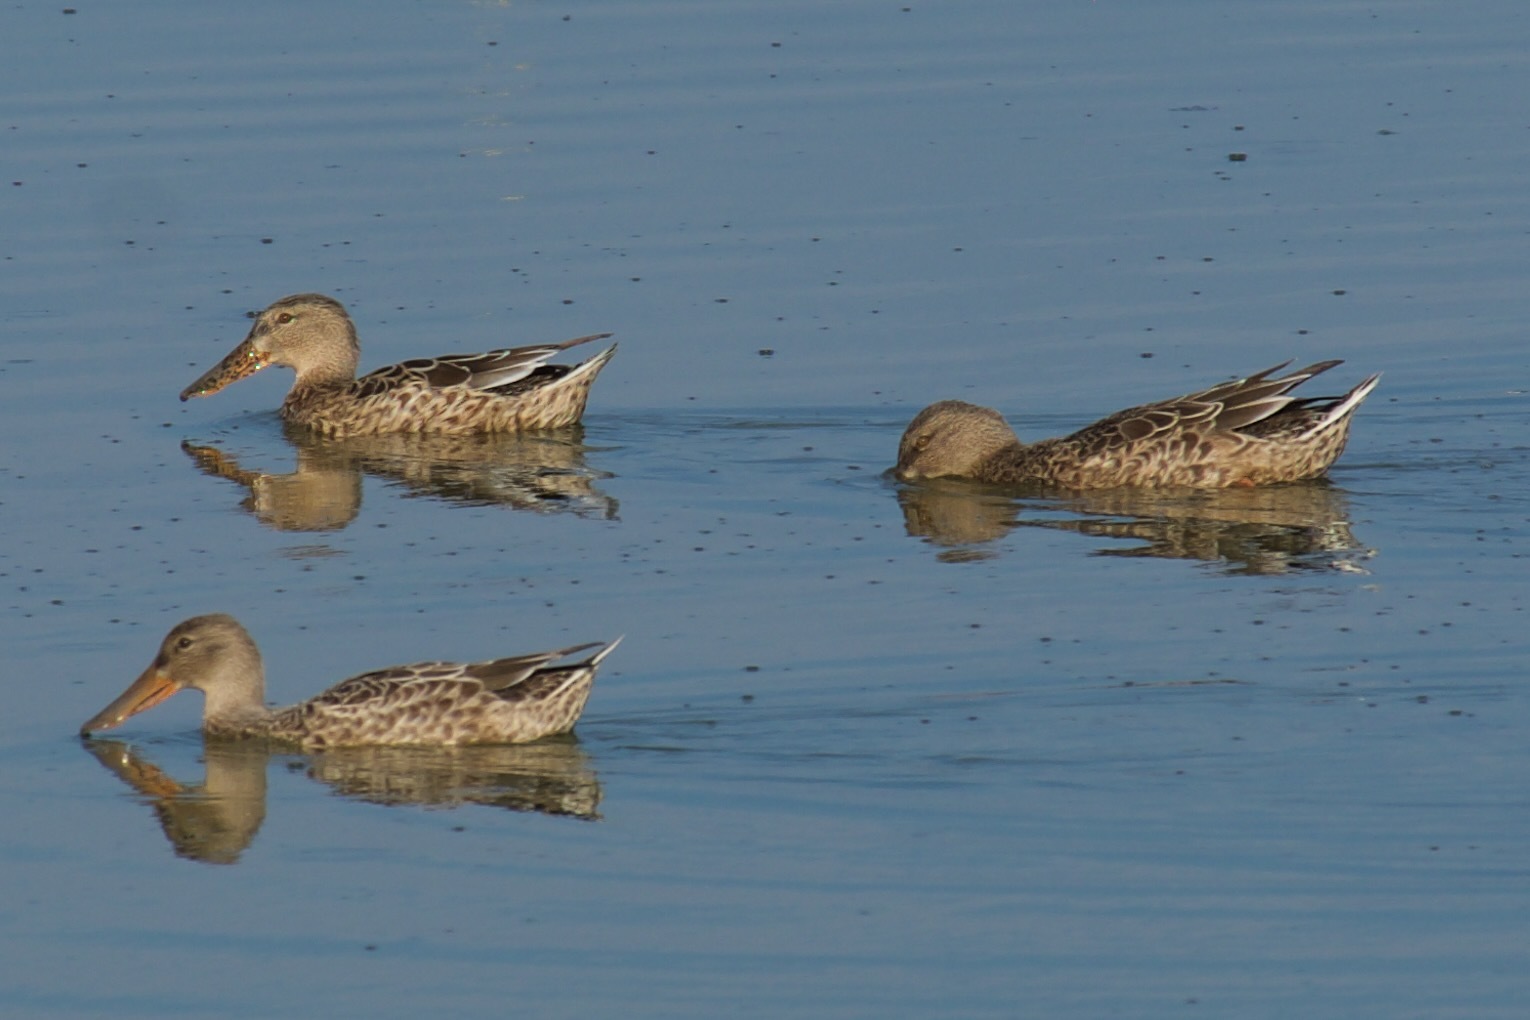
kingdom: Animalia
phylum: Chordata
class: Aves
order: Anseriformes
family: Anatidae
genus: Spatula
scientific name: Spatula clypeata
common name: Northern shoveler
